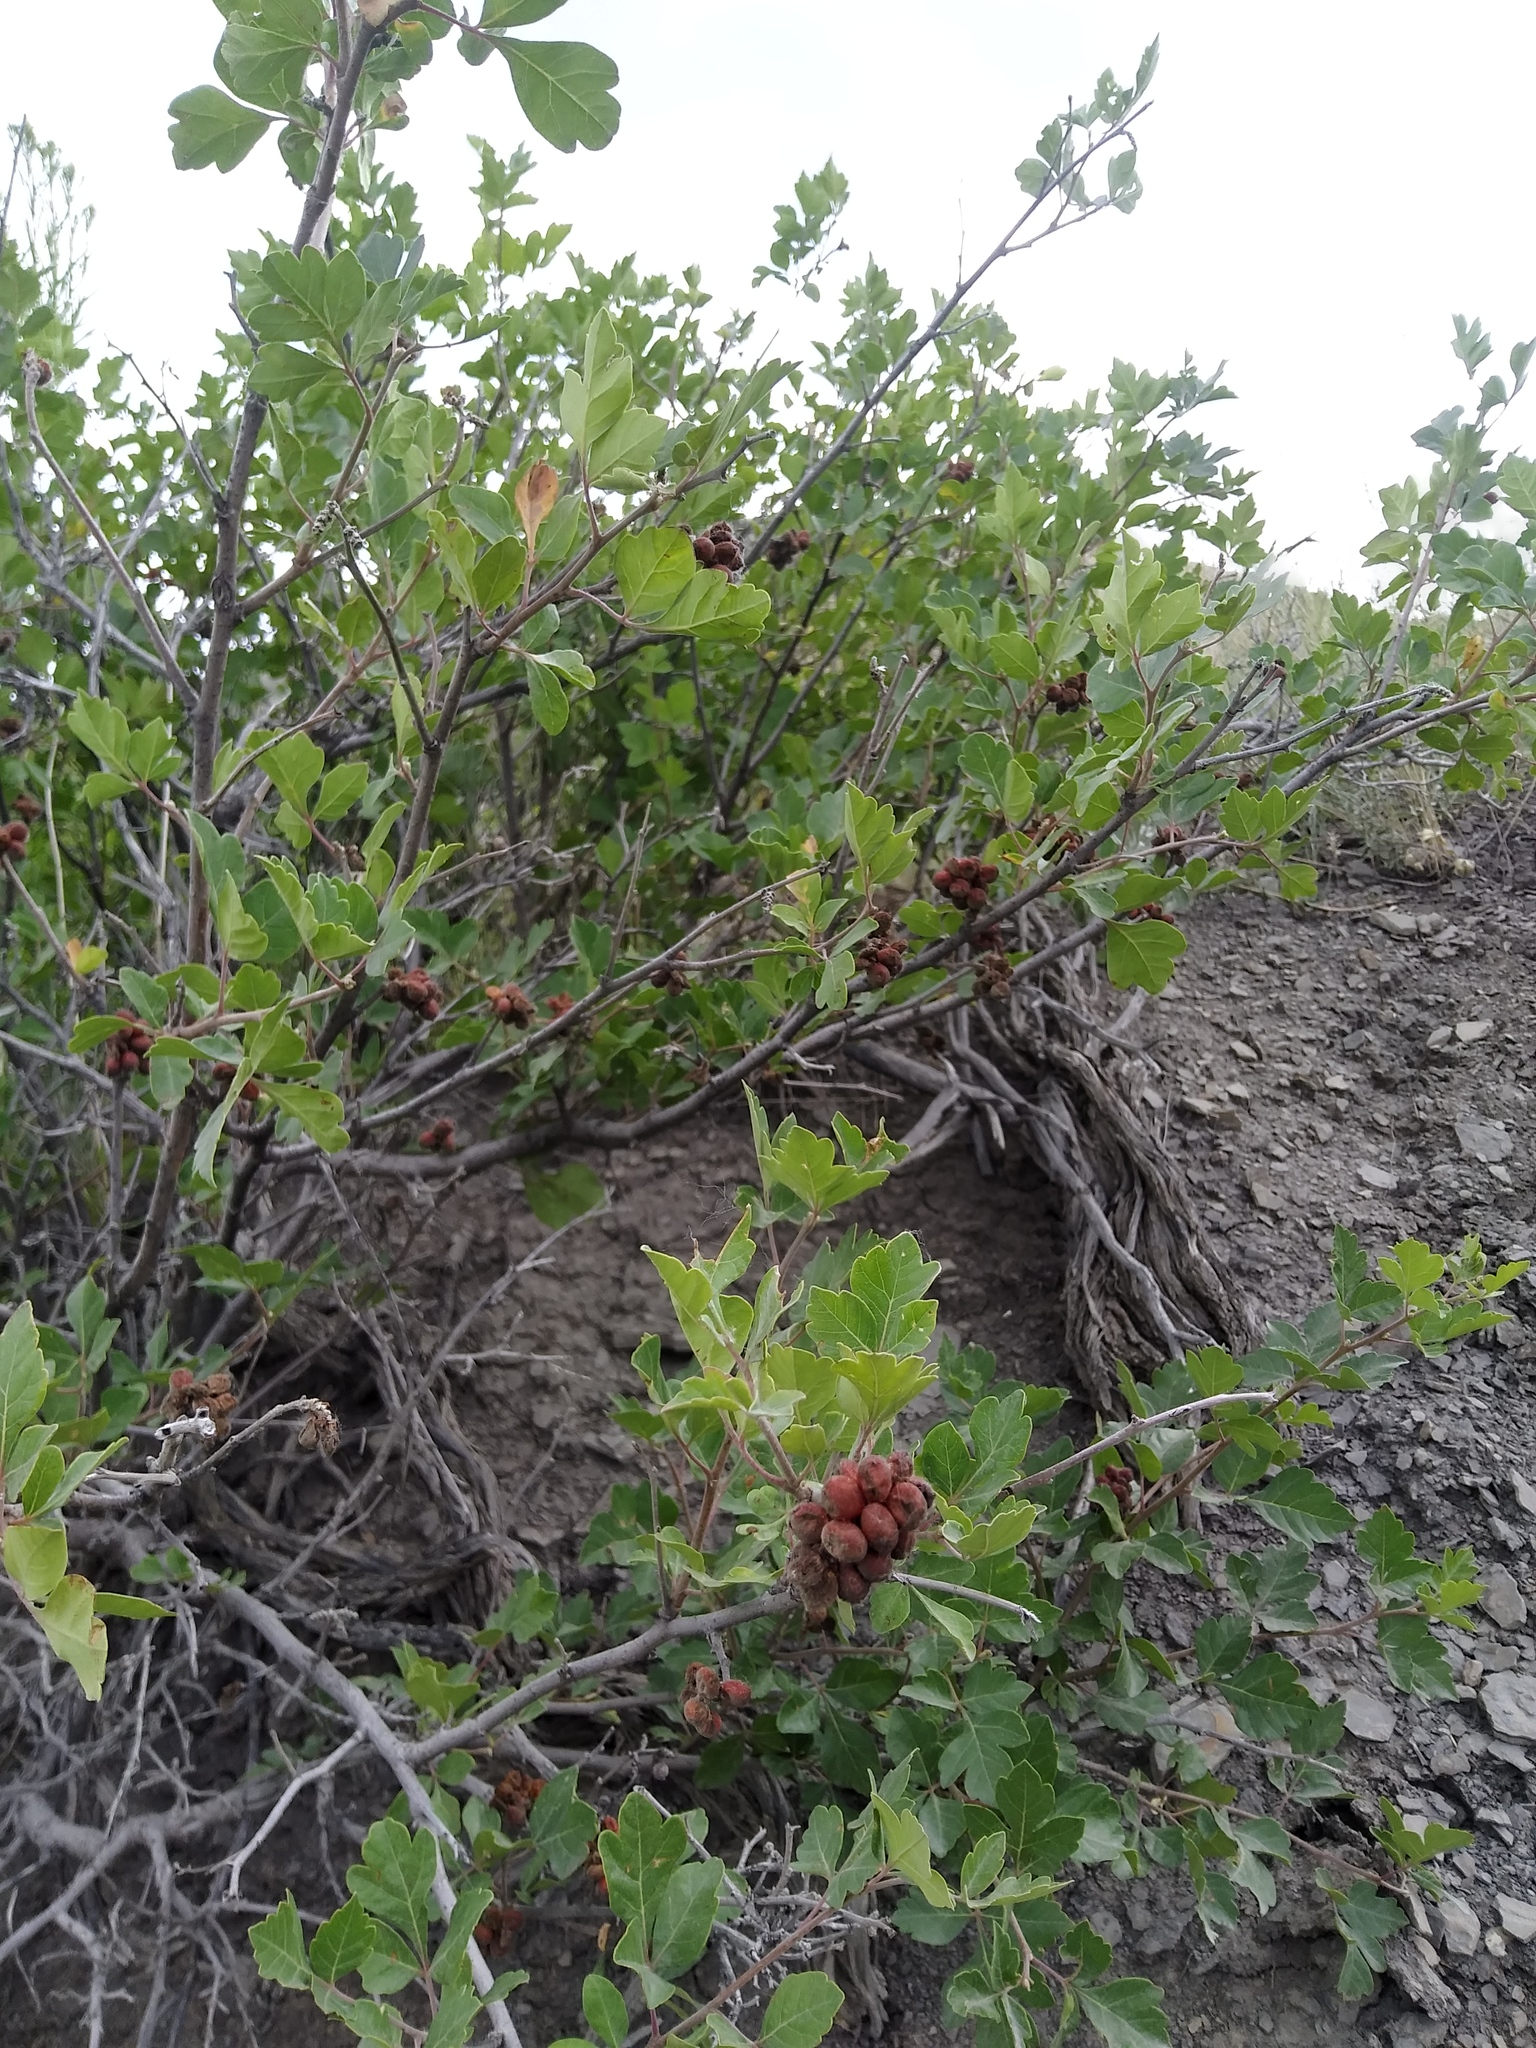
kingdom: Plantae
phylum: Tracheophyta
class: Magnoliopsida
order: Sapindales
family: Anacardiaceae
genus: Rhus
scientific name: Rhus aromatica
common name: Aromatic sumac
